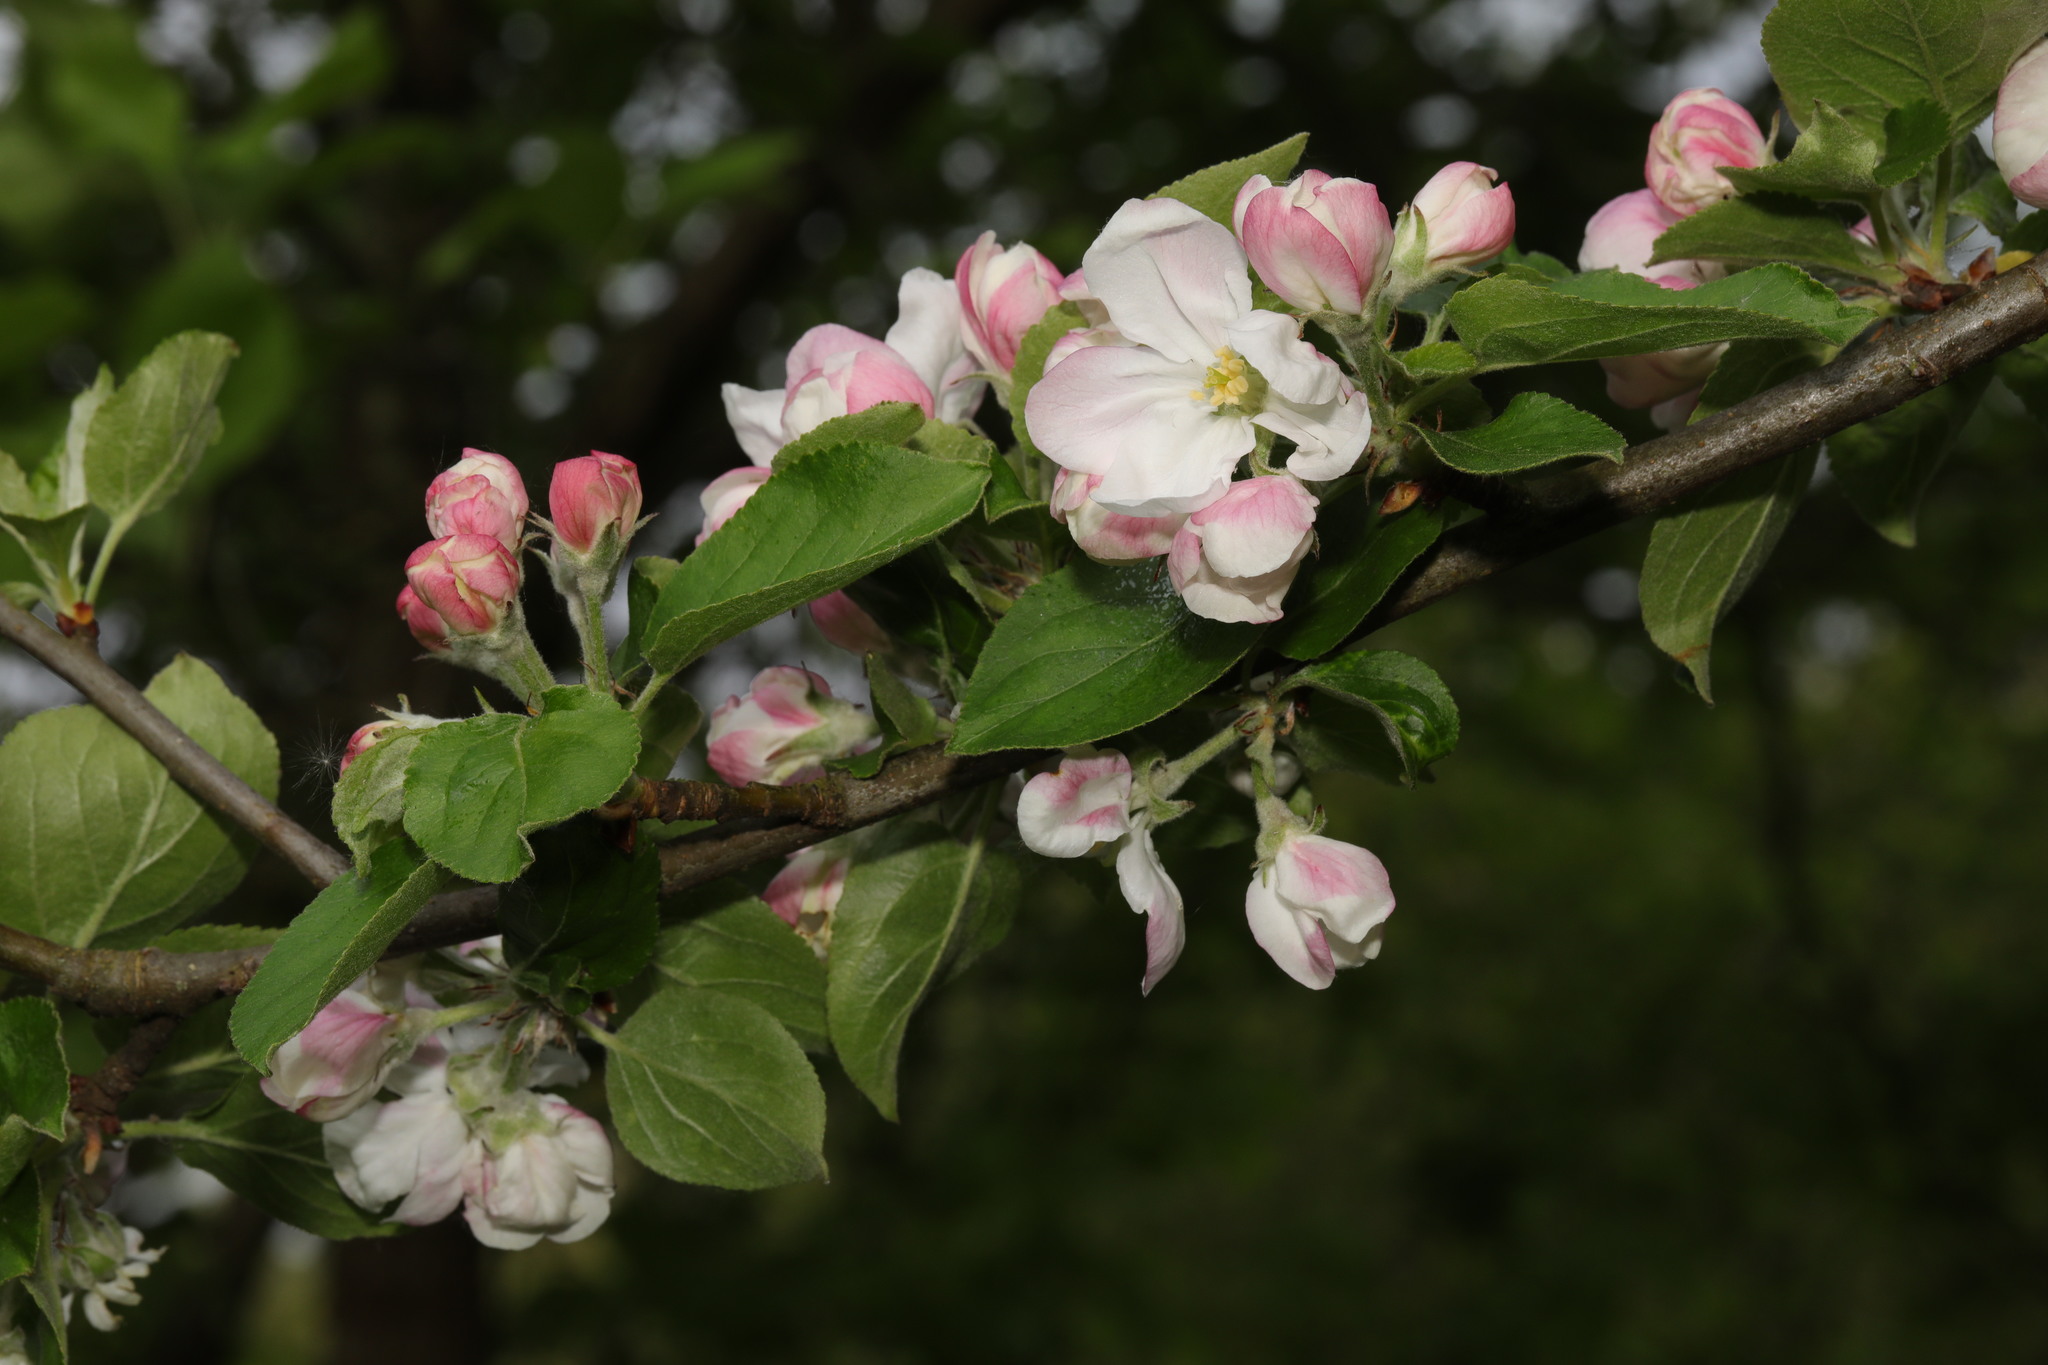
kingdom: Plantae
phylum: Tracheophyta
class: Magnoliopsida
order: Rosales
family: Rosaceae
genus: Malus
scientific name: Malus domestica
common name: Apple
